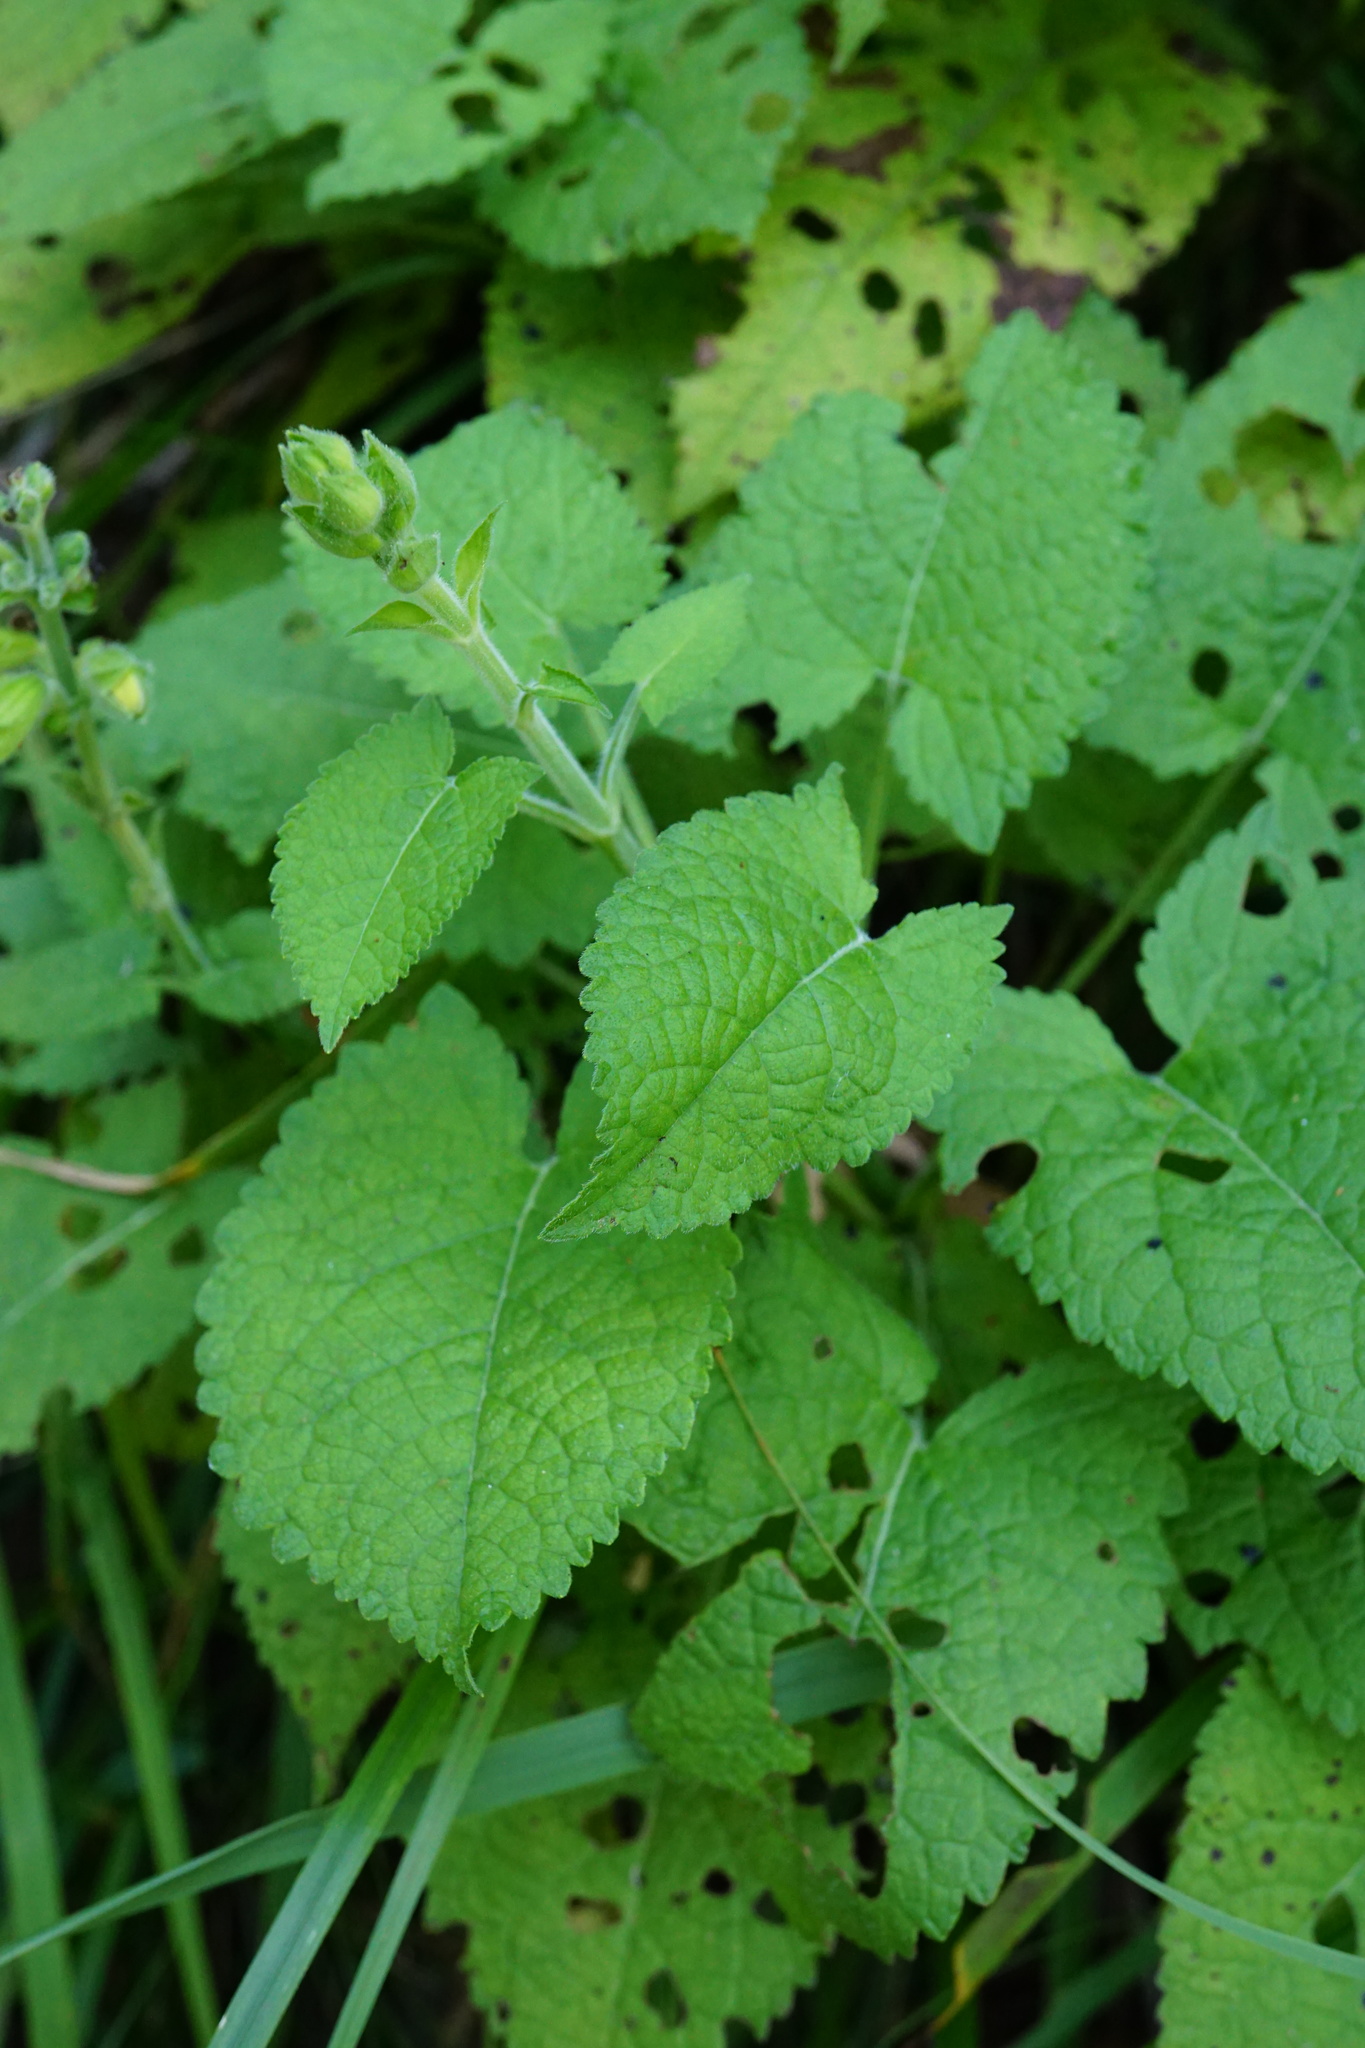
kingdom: Plantae
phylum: Tracheophyta
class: Magnoliopsida
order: Lamiales
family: Lamiaceae
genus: Salvia
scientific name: Salvia glutinosa
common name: Sticky clary
